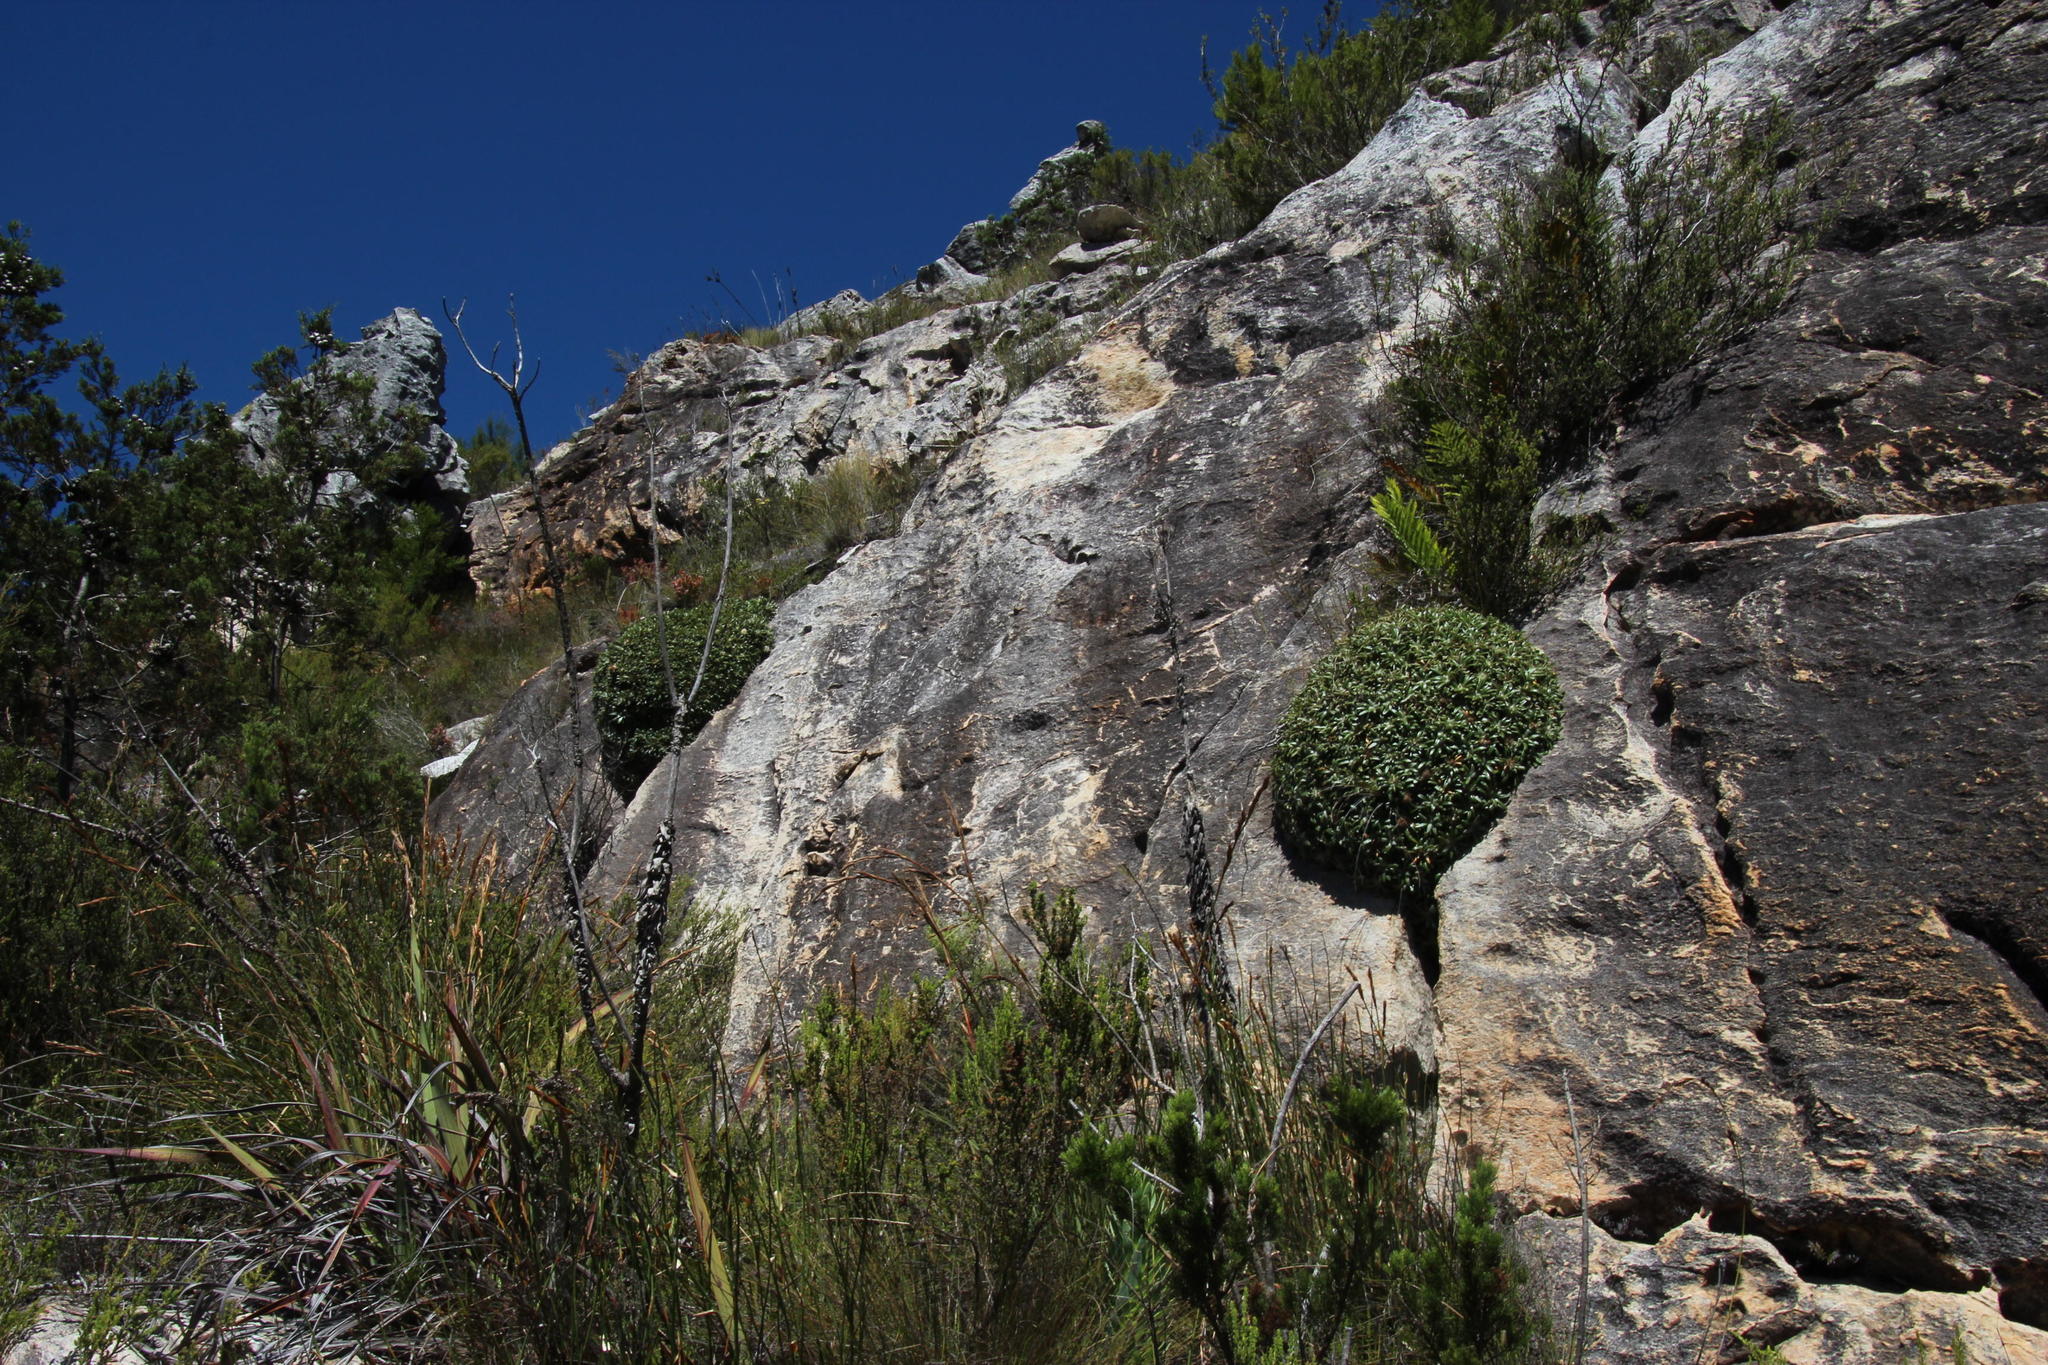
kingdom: Plantae
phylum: Tracheophyta
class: Magnoliopsida
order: Asterales
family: Asteraceae
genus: Oldenburgia
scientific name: Oldenburgia paradoxa
